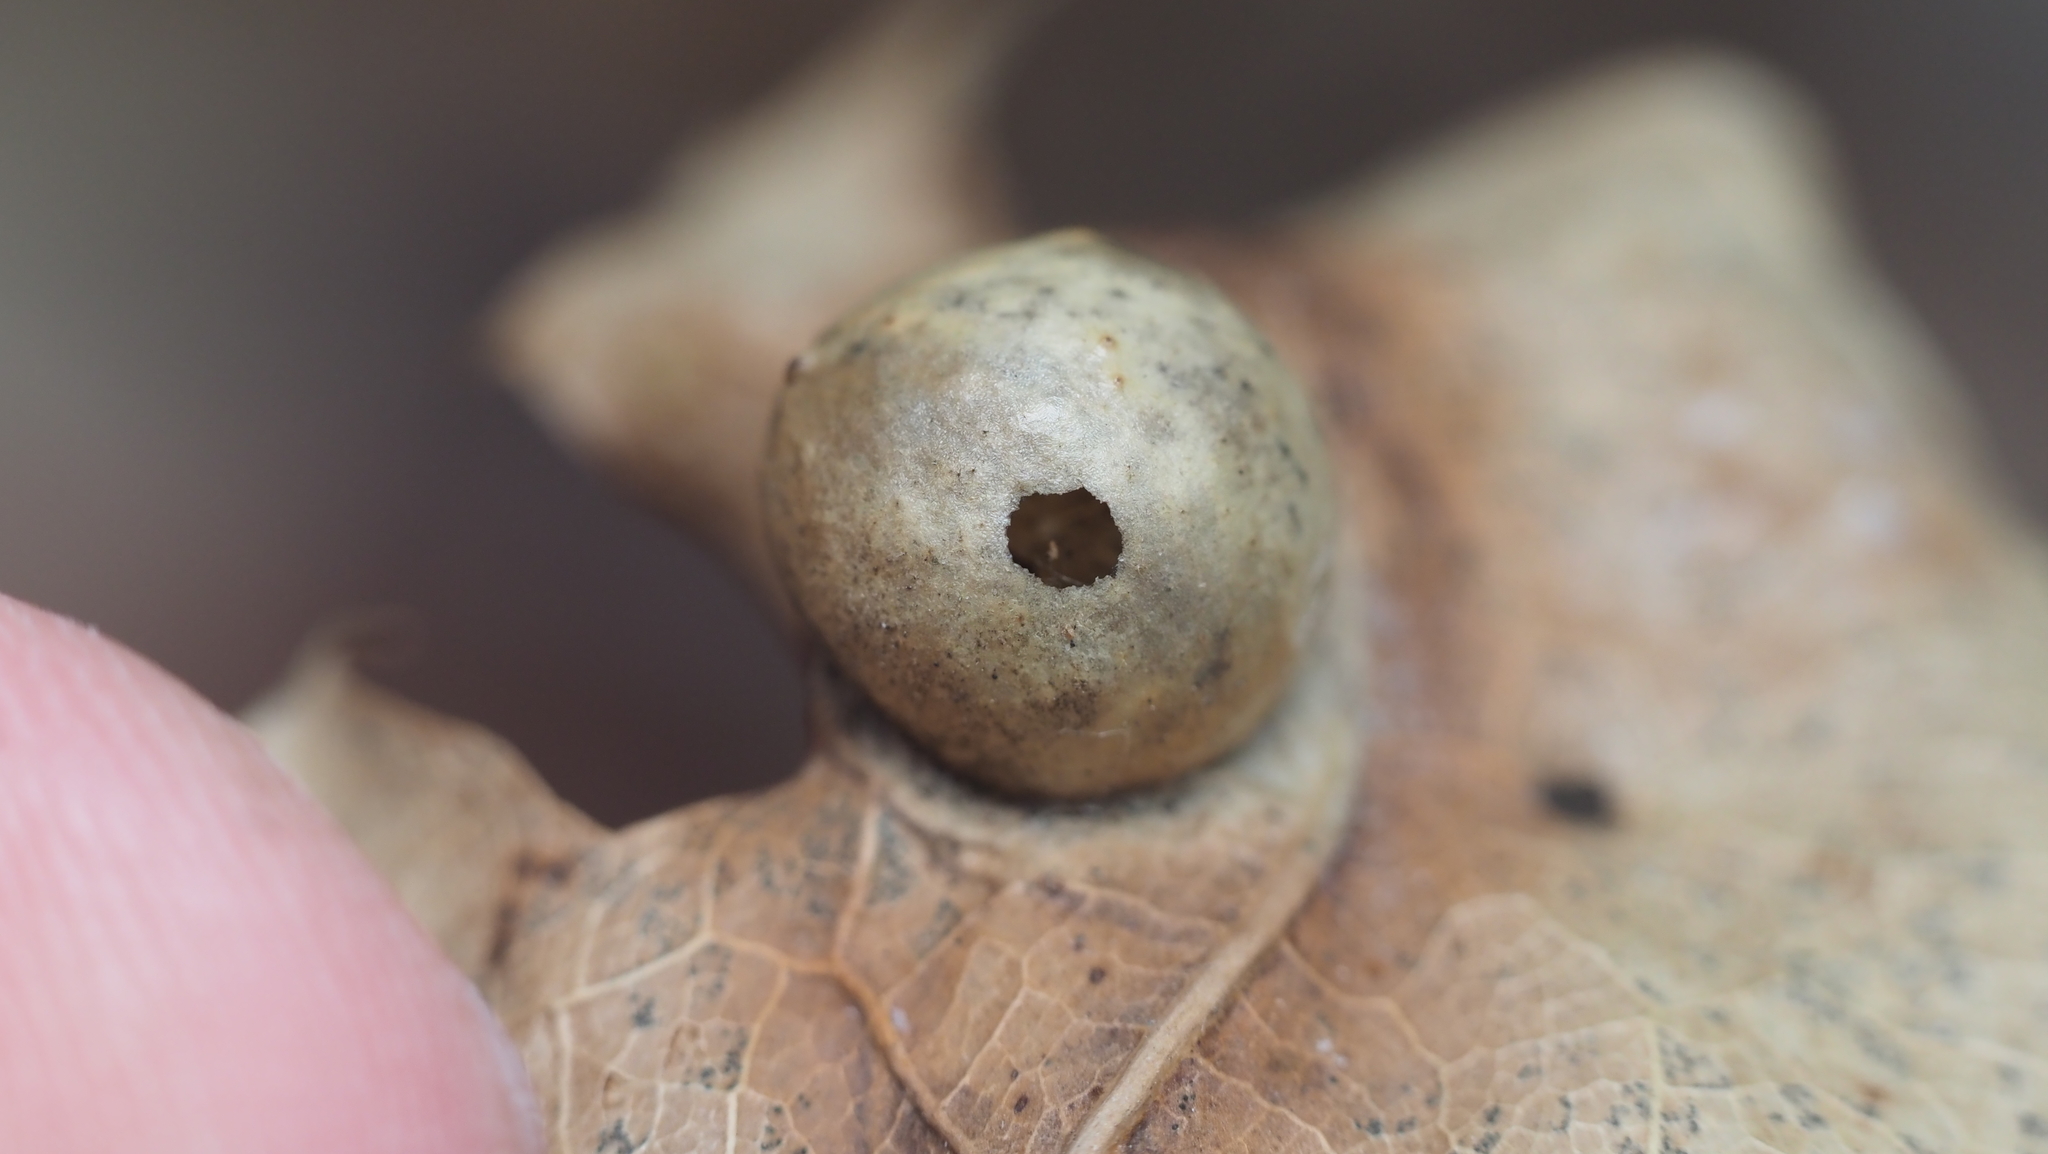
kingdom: Animalia
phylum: Arthropoda
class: Insecta
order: Hymenoptera
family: Cynipidae
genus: Amphibolips
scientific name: Amphibolips
